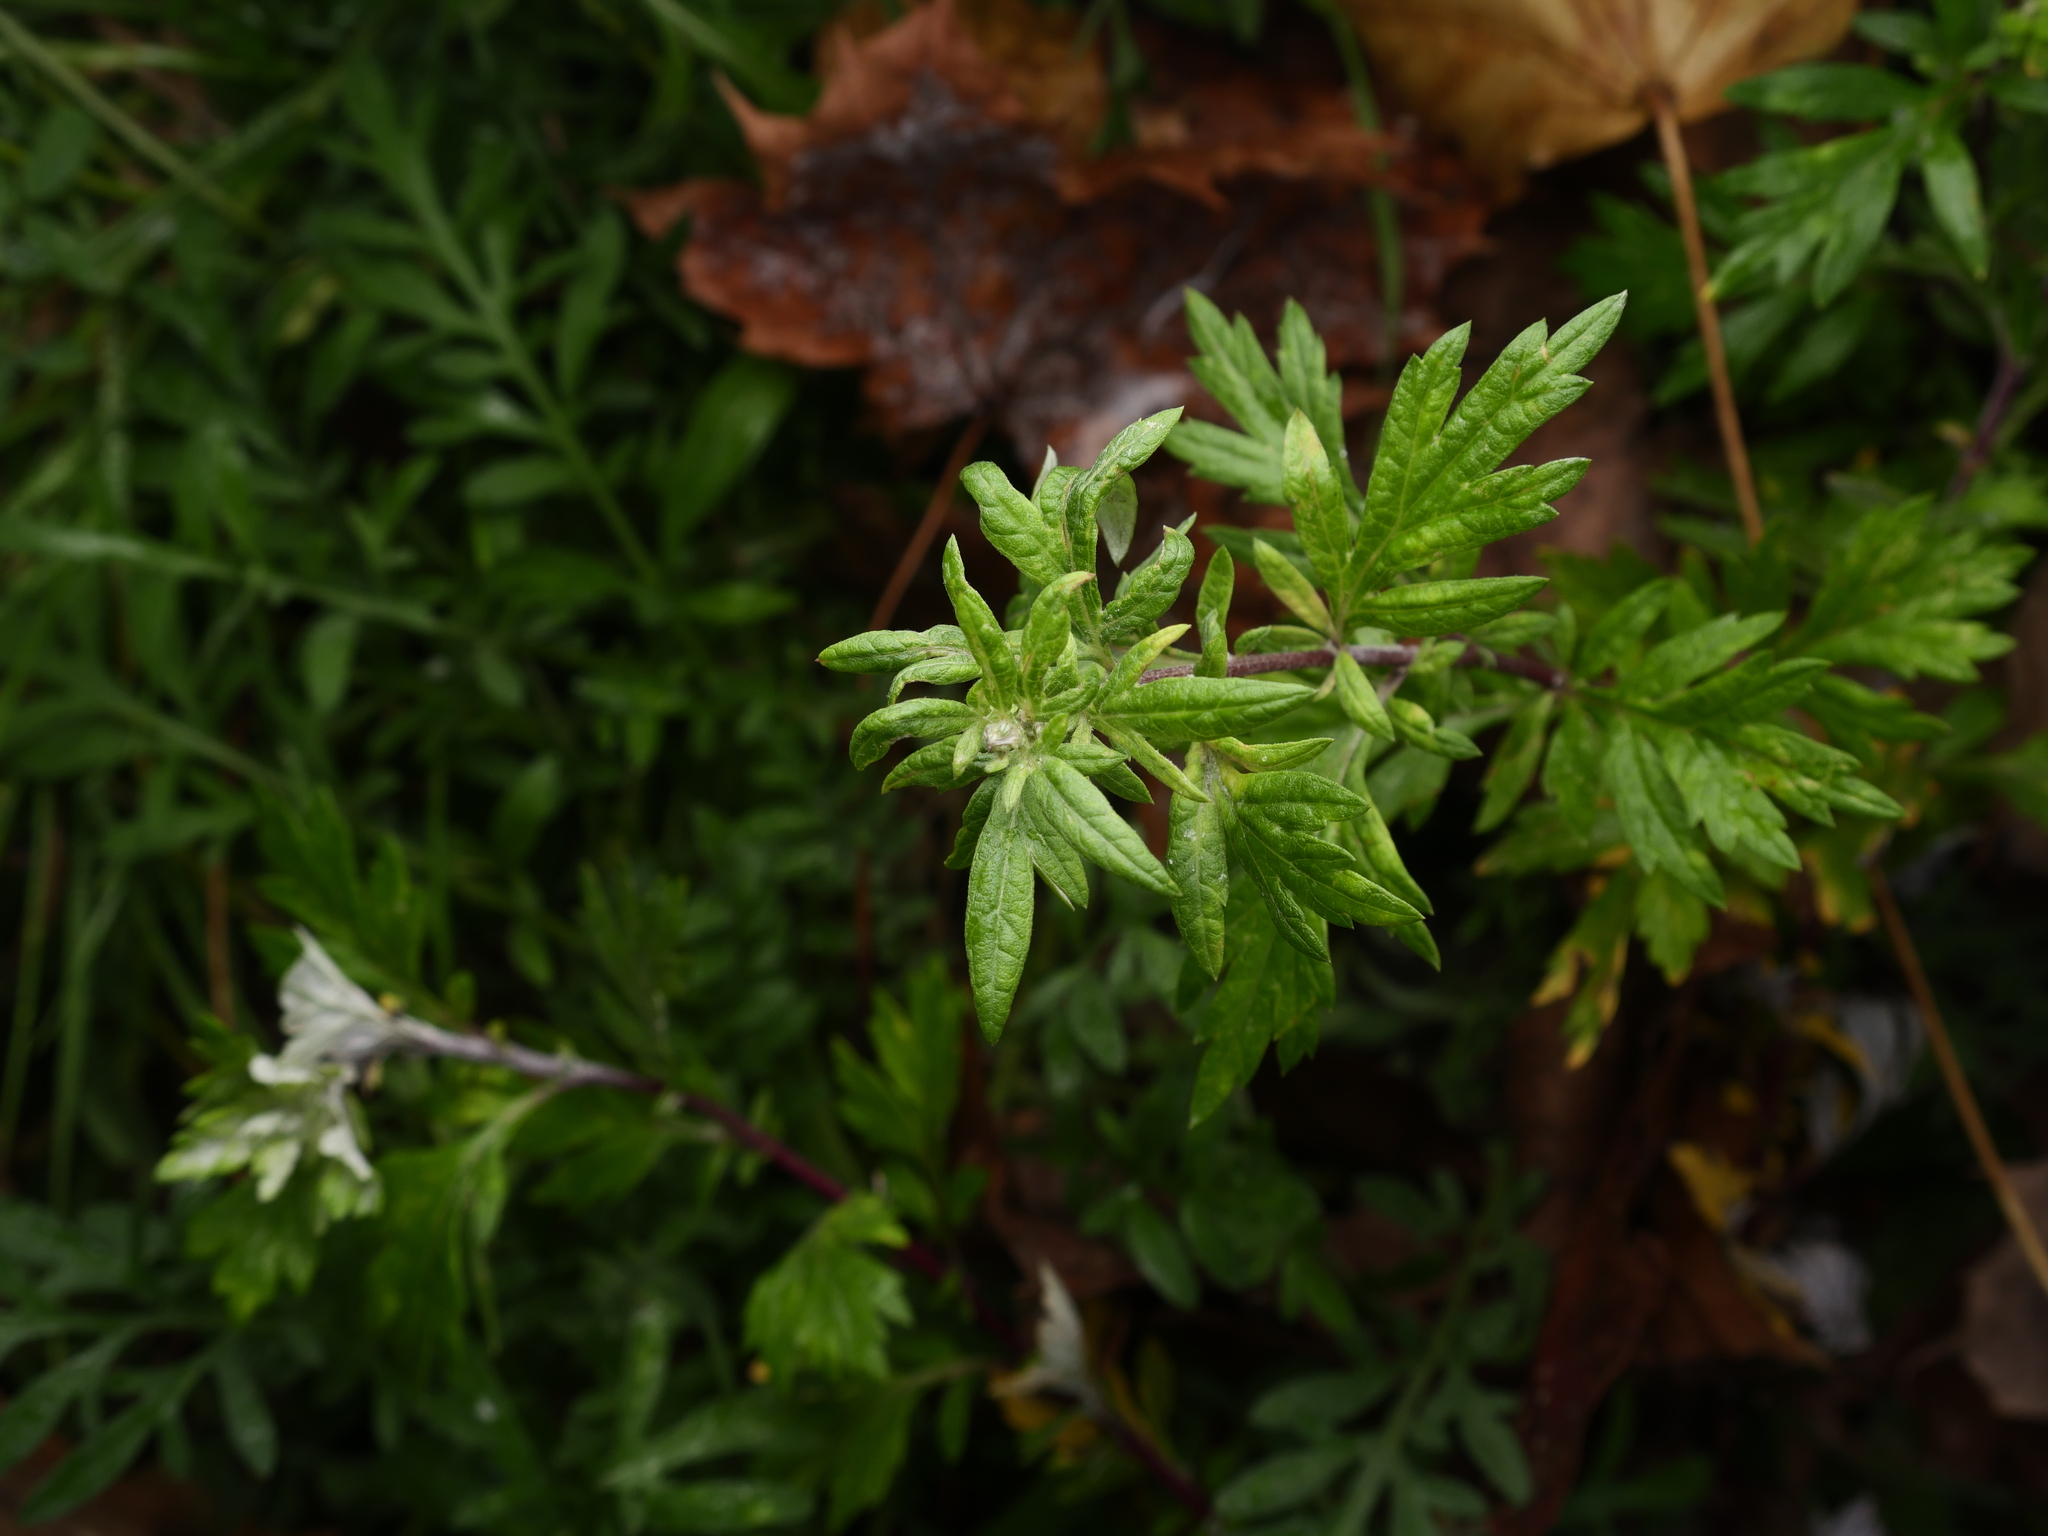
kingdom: Plantae
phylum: Tracheophyta
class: Magnoliopsida
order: Asterales
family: Asteraceae
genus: Artemisia
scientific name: Artemisia vulgaris
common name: Mugwort
